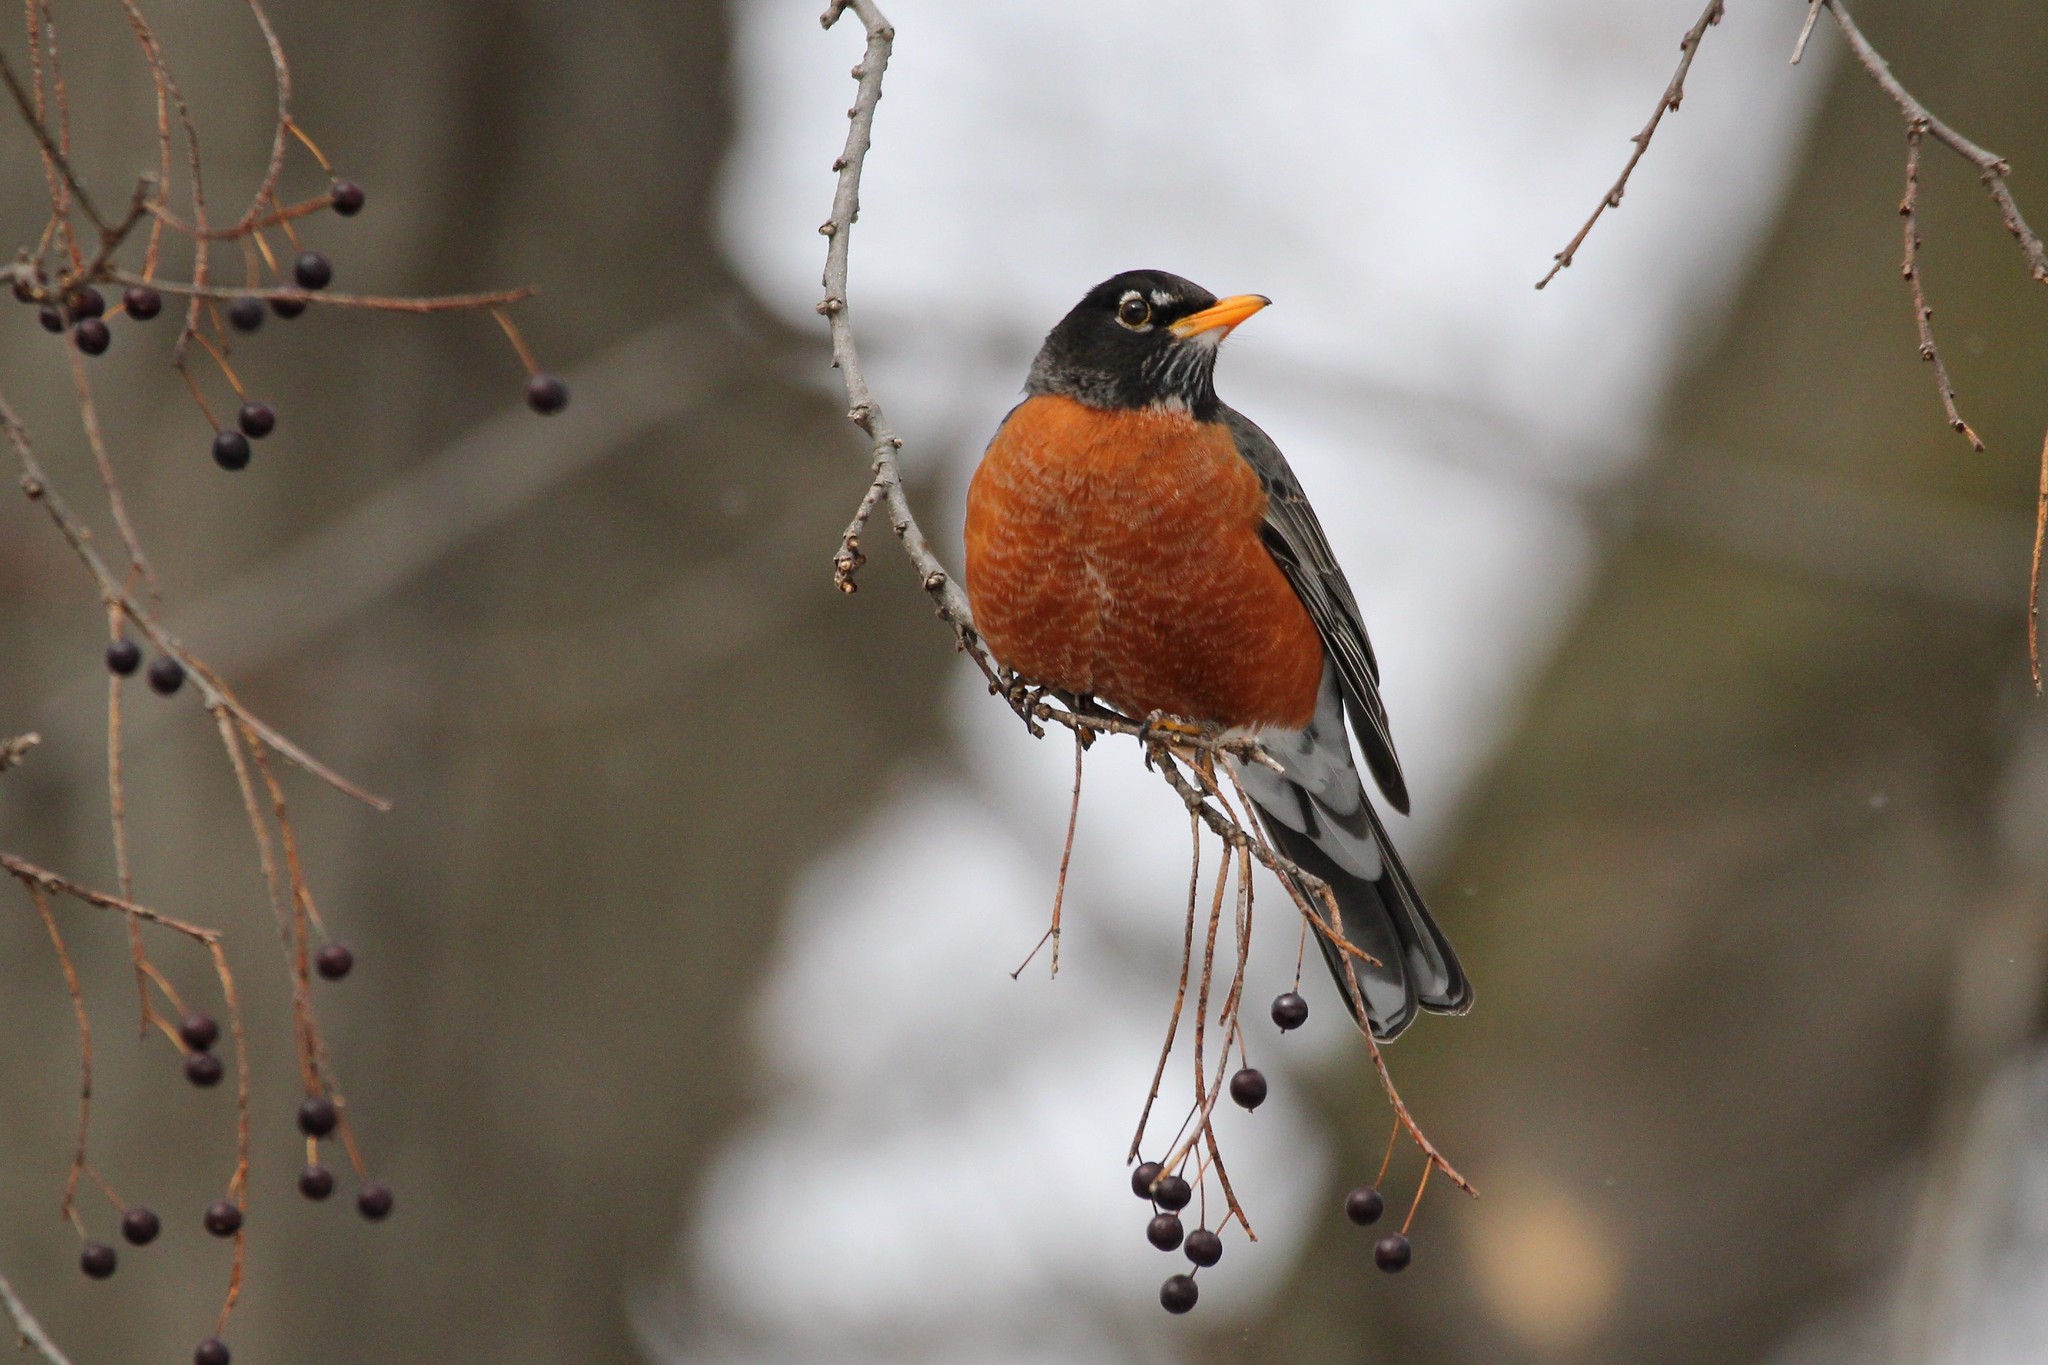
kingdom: Animalia
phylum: Chordata
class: Aves
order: Passeriformes
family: Turdidae
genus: Turdus
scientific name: Turdus migratorius
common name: American robin
